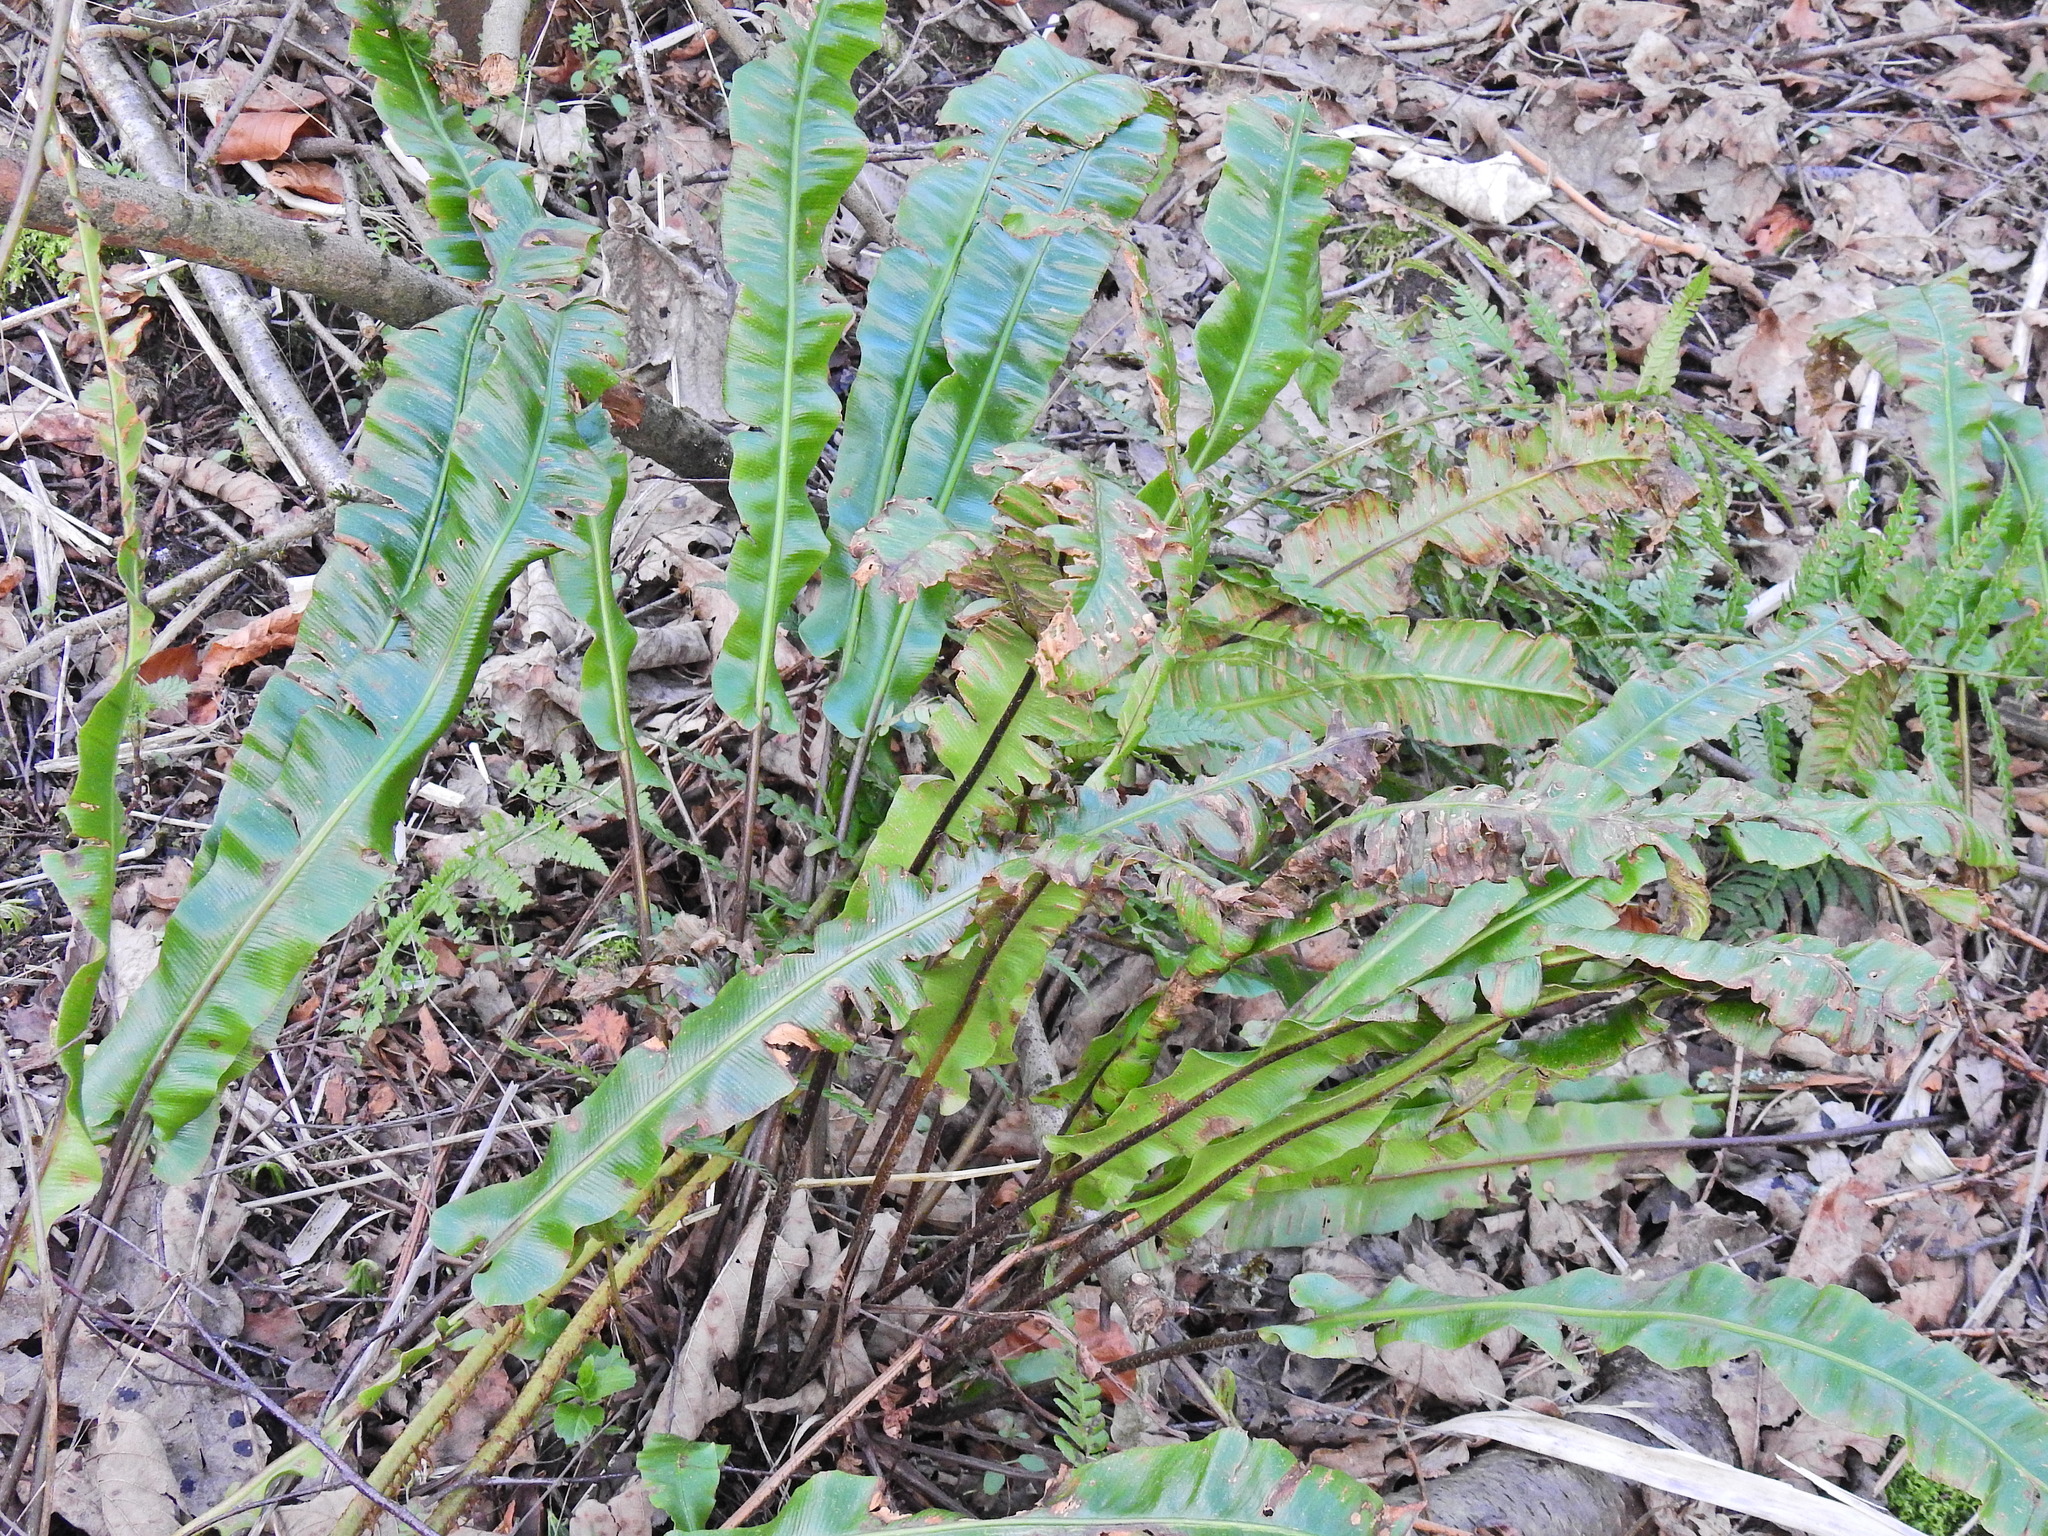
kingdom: Plantae
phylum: Tracheophyta
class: Polypodiopsida
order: Polypodiales
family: Aspleniaceae
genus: Asplenium
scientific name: Asplenium scolopendrium
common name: Hart's-tongue fern
